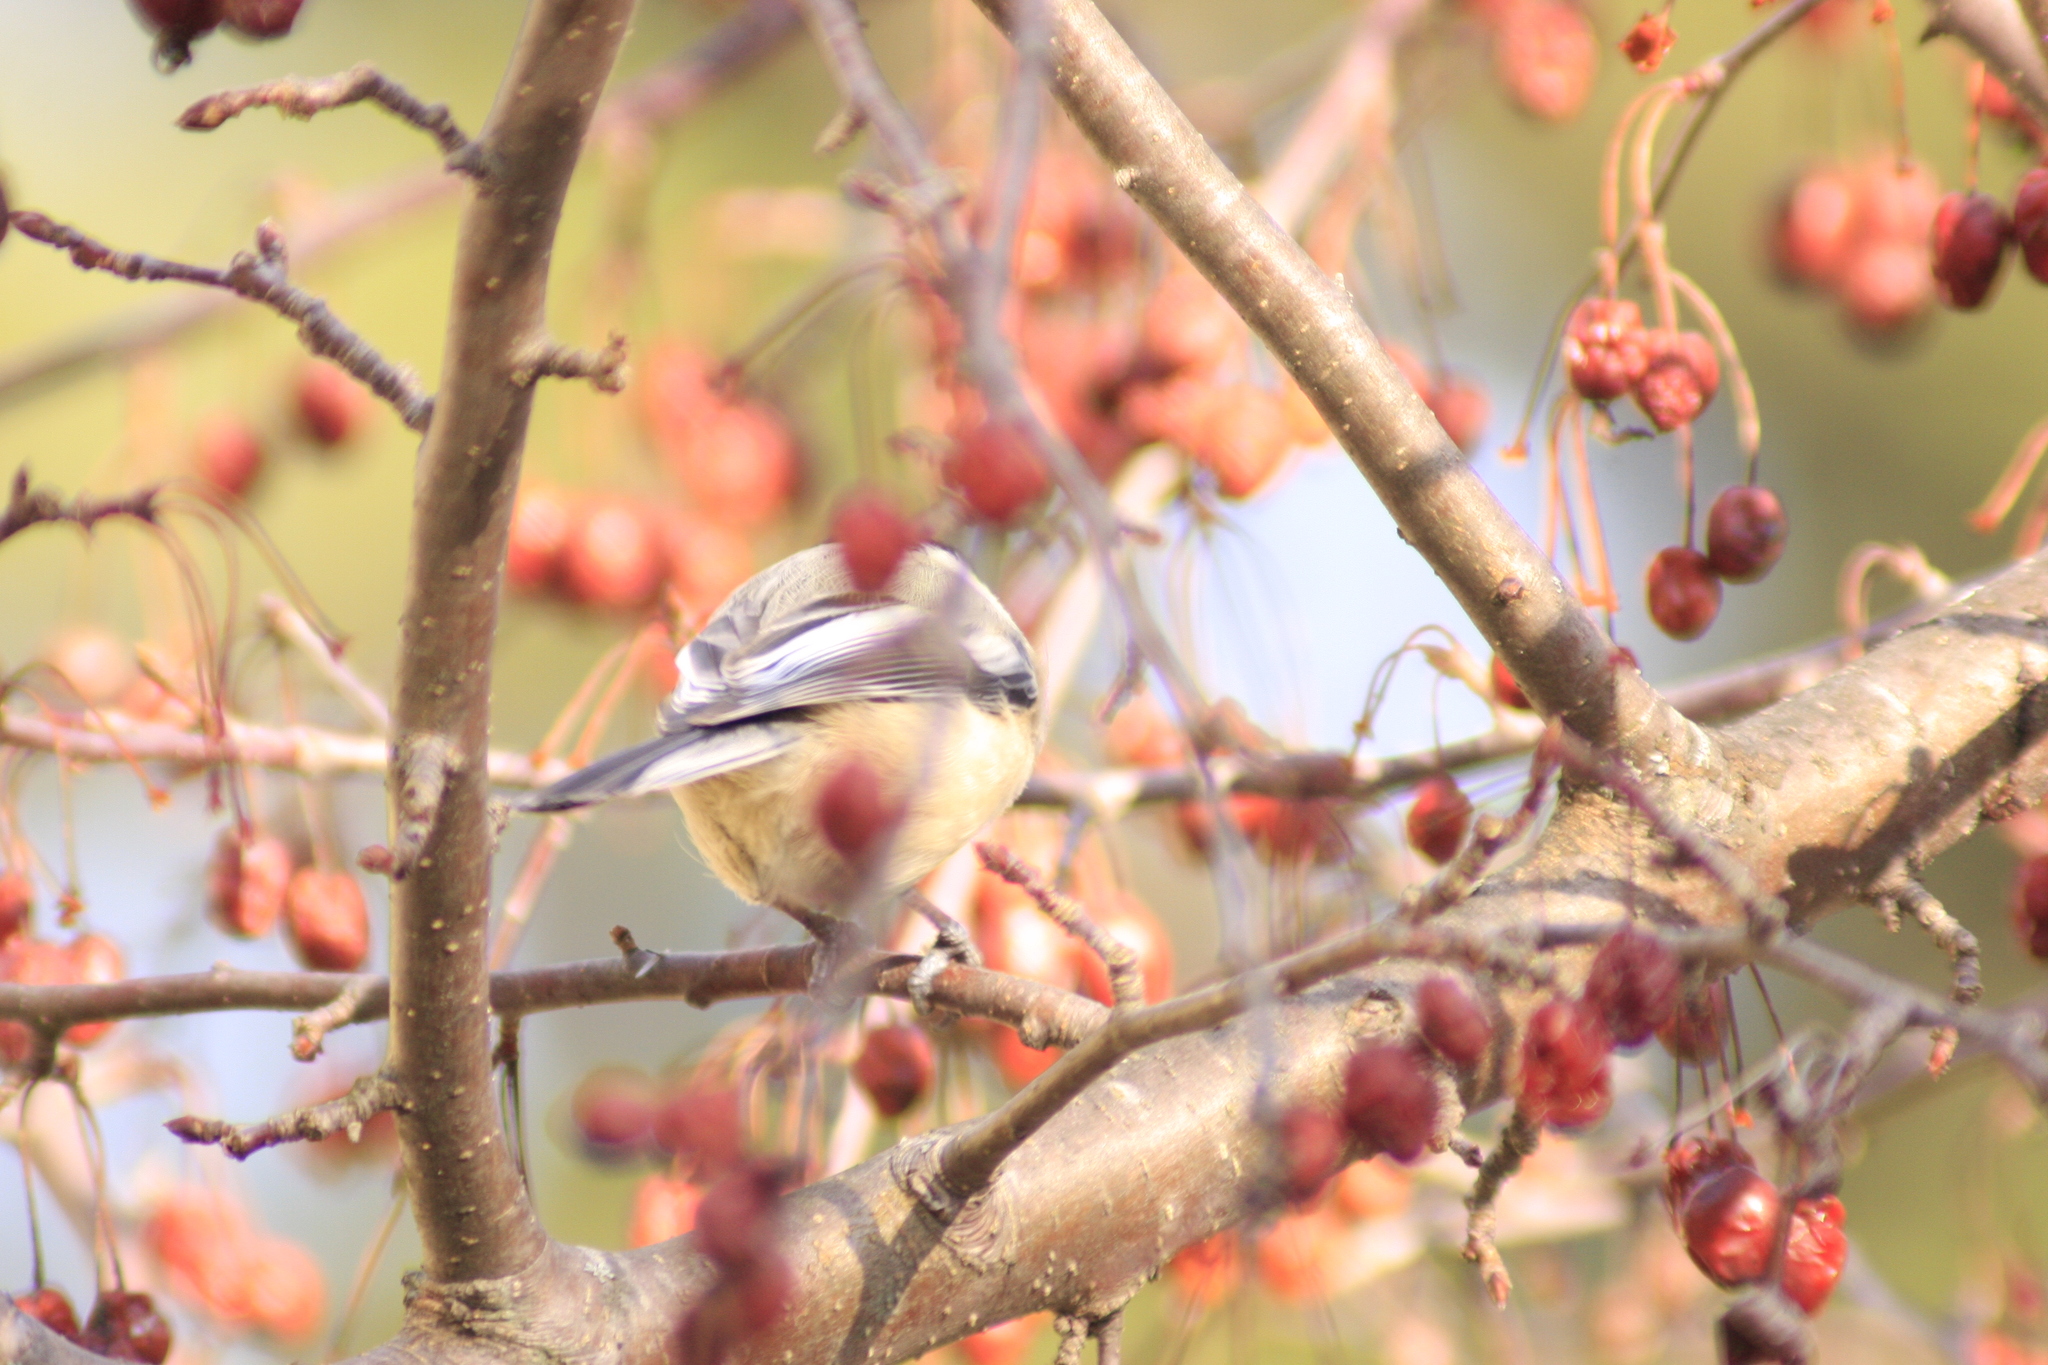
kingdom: Animalia
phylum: Chordata
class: Aves
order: Passeriformes
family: Paridae
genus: Poecile
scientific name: Poecile atricapillus
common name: Black-capped chickadee
